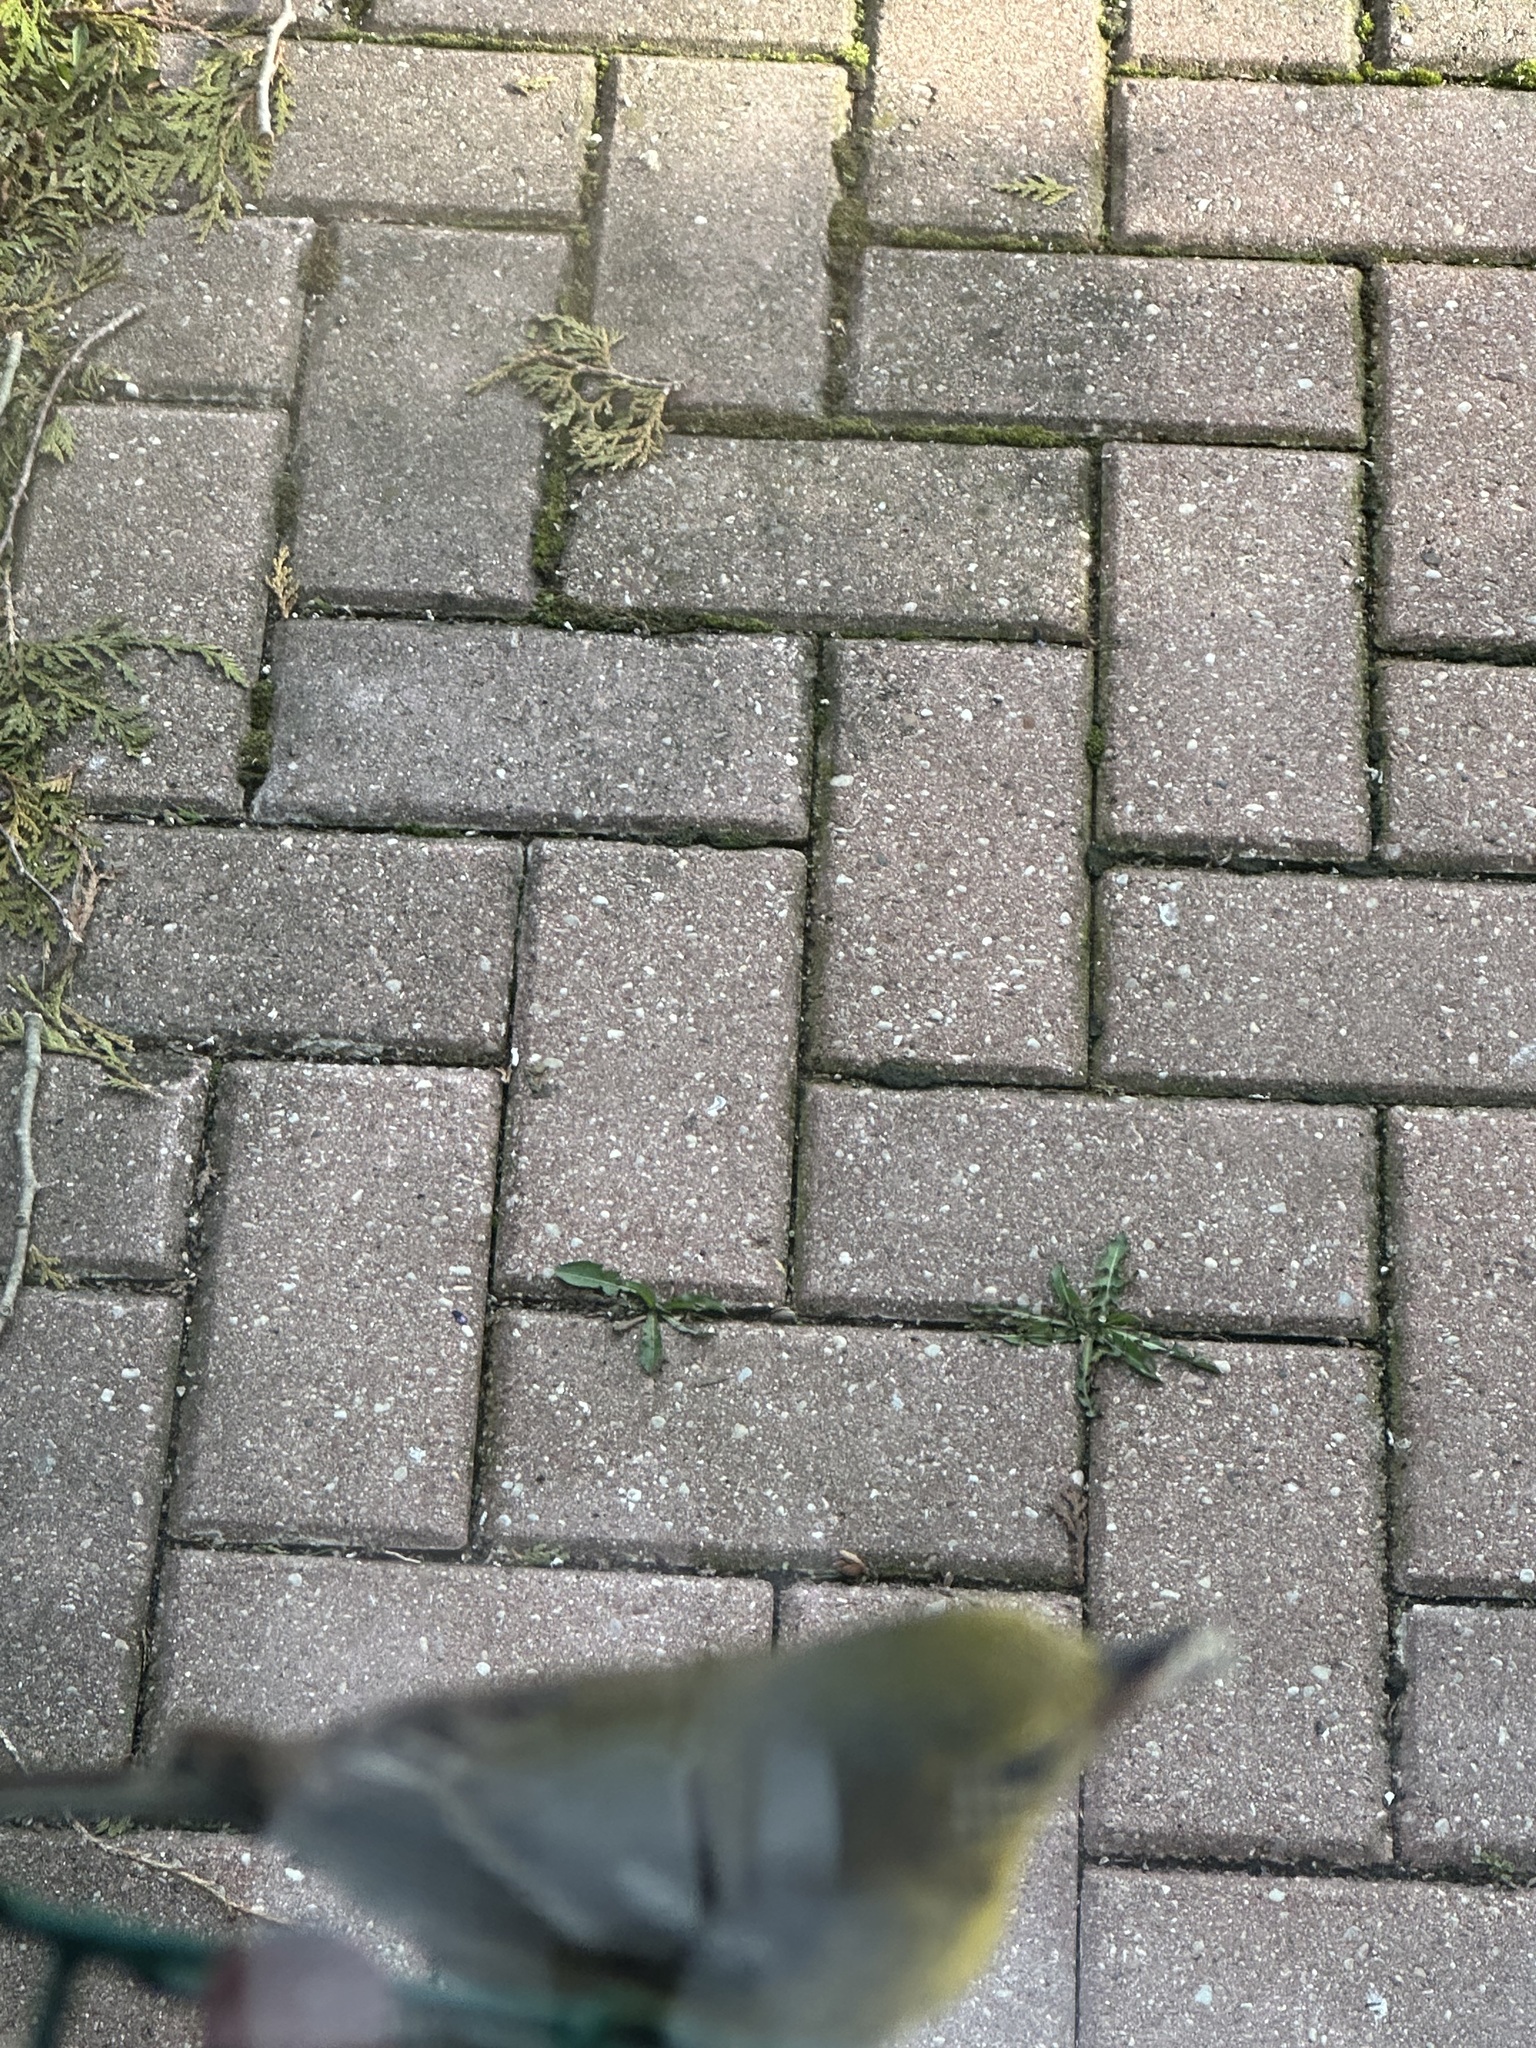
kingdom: Animalia
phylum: Chordata
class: Aves
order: Passeriformes
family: Parulidae
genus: Setophaga
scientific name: Setophaga pinus
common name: Pine warbler
